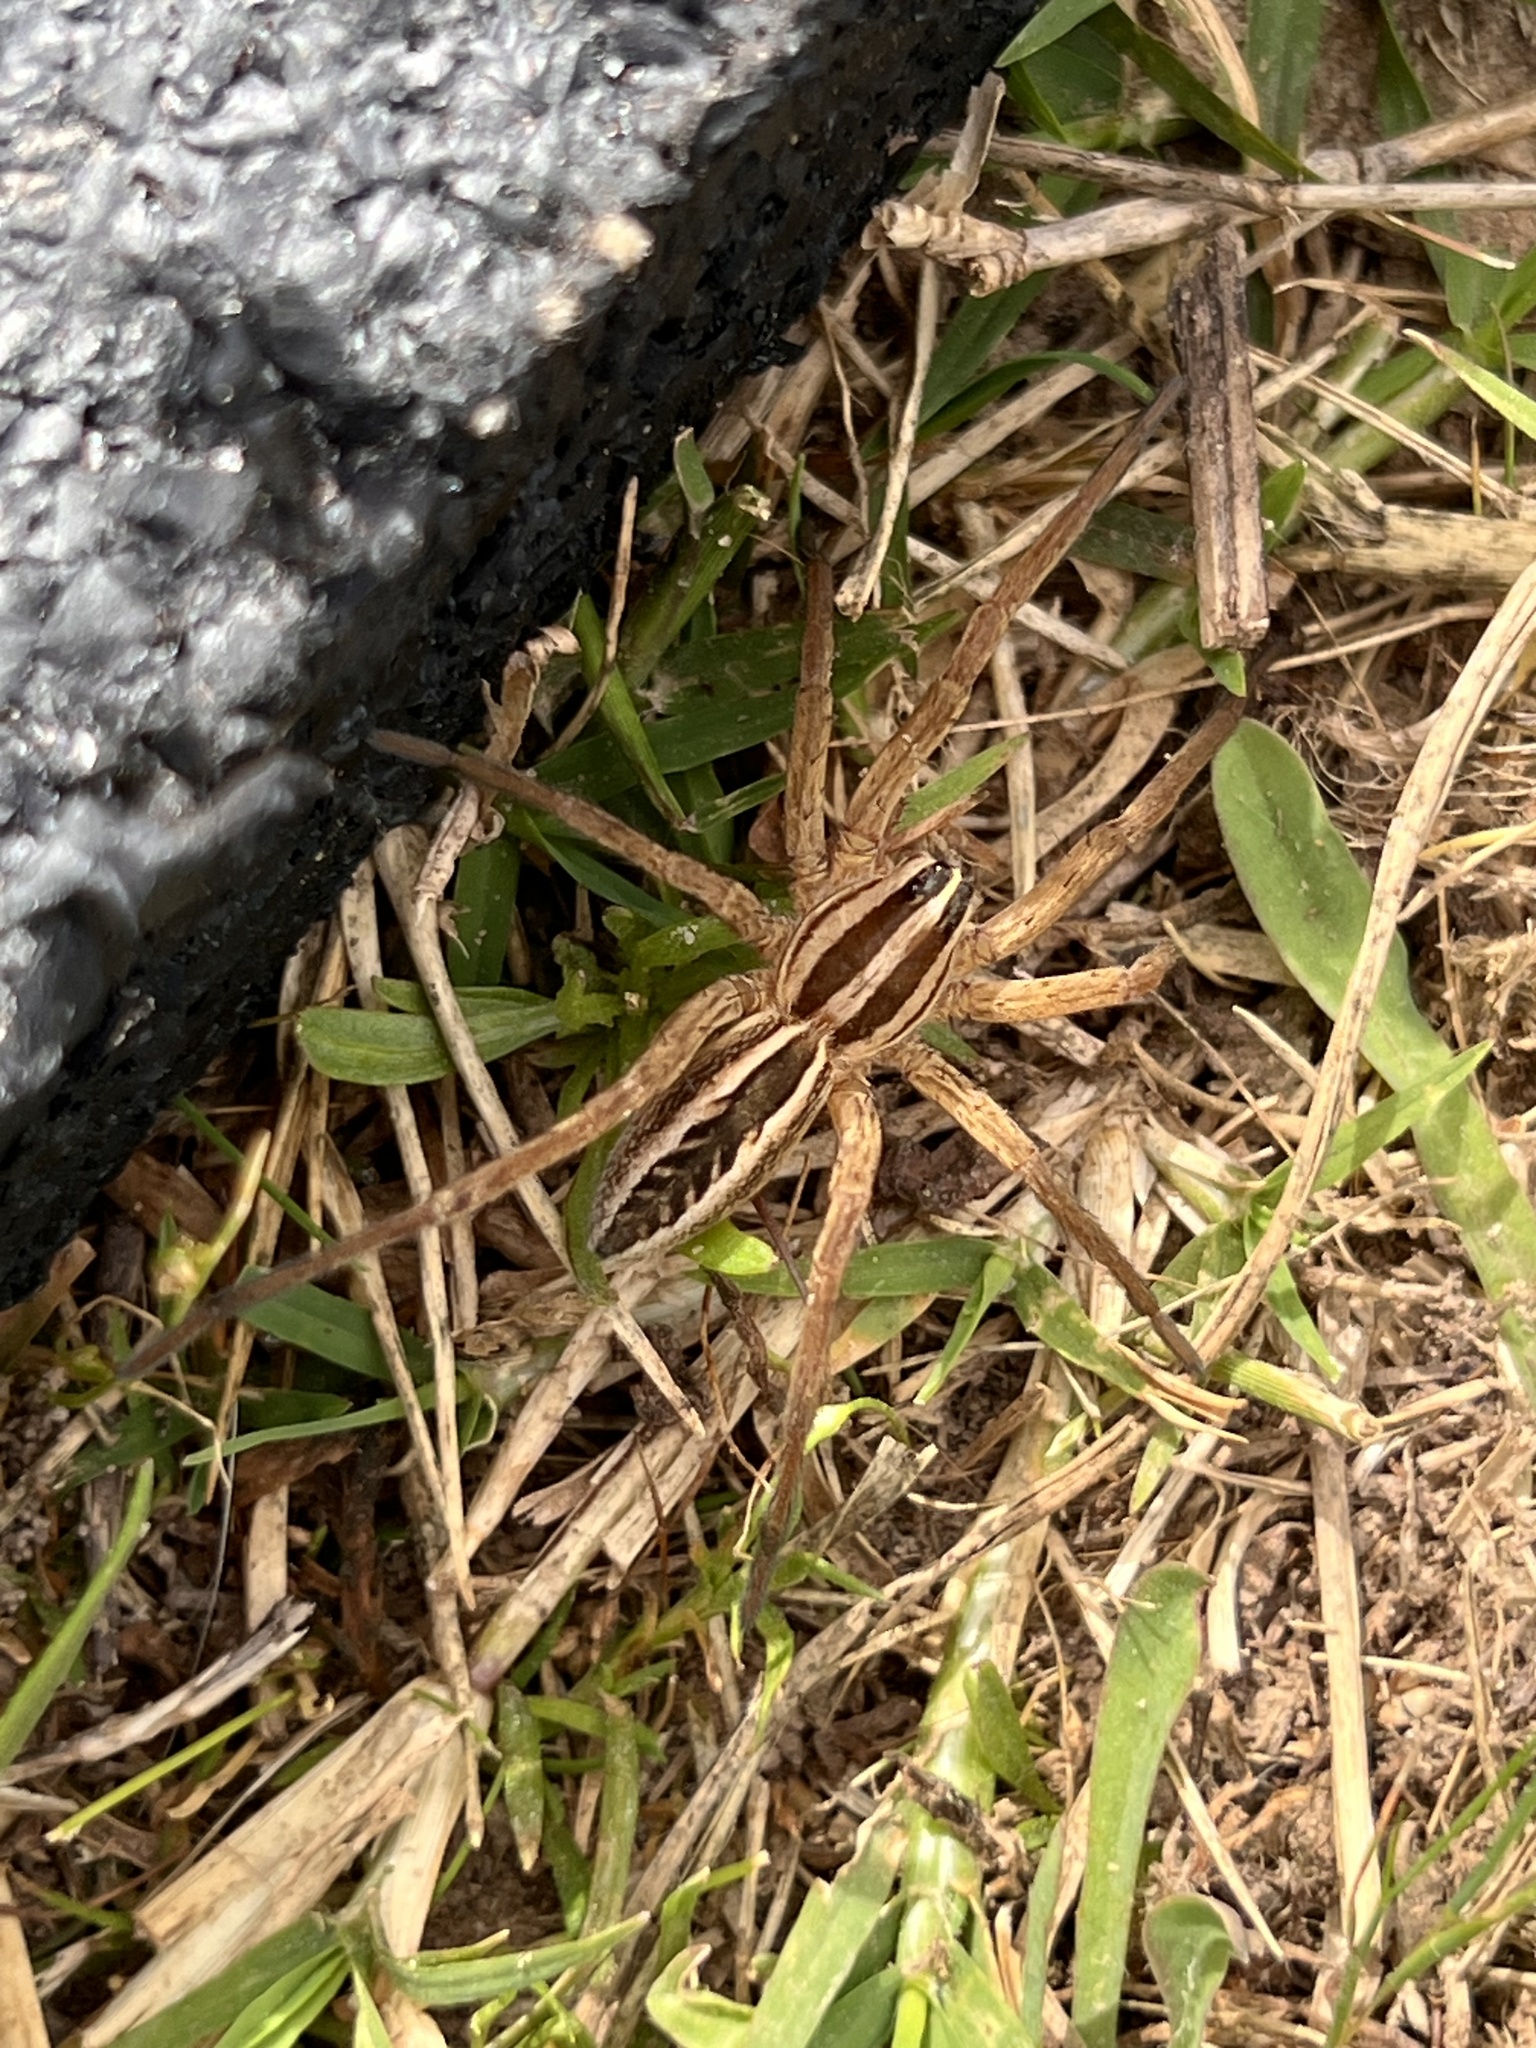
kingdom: Animalia
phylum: Arthropoda
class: Arachnida
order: Araneae
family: Lycosidae
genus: Rabidosa
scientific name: Rabidosa rabida
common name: Rabid wolf spider
